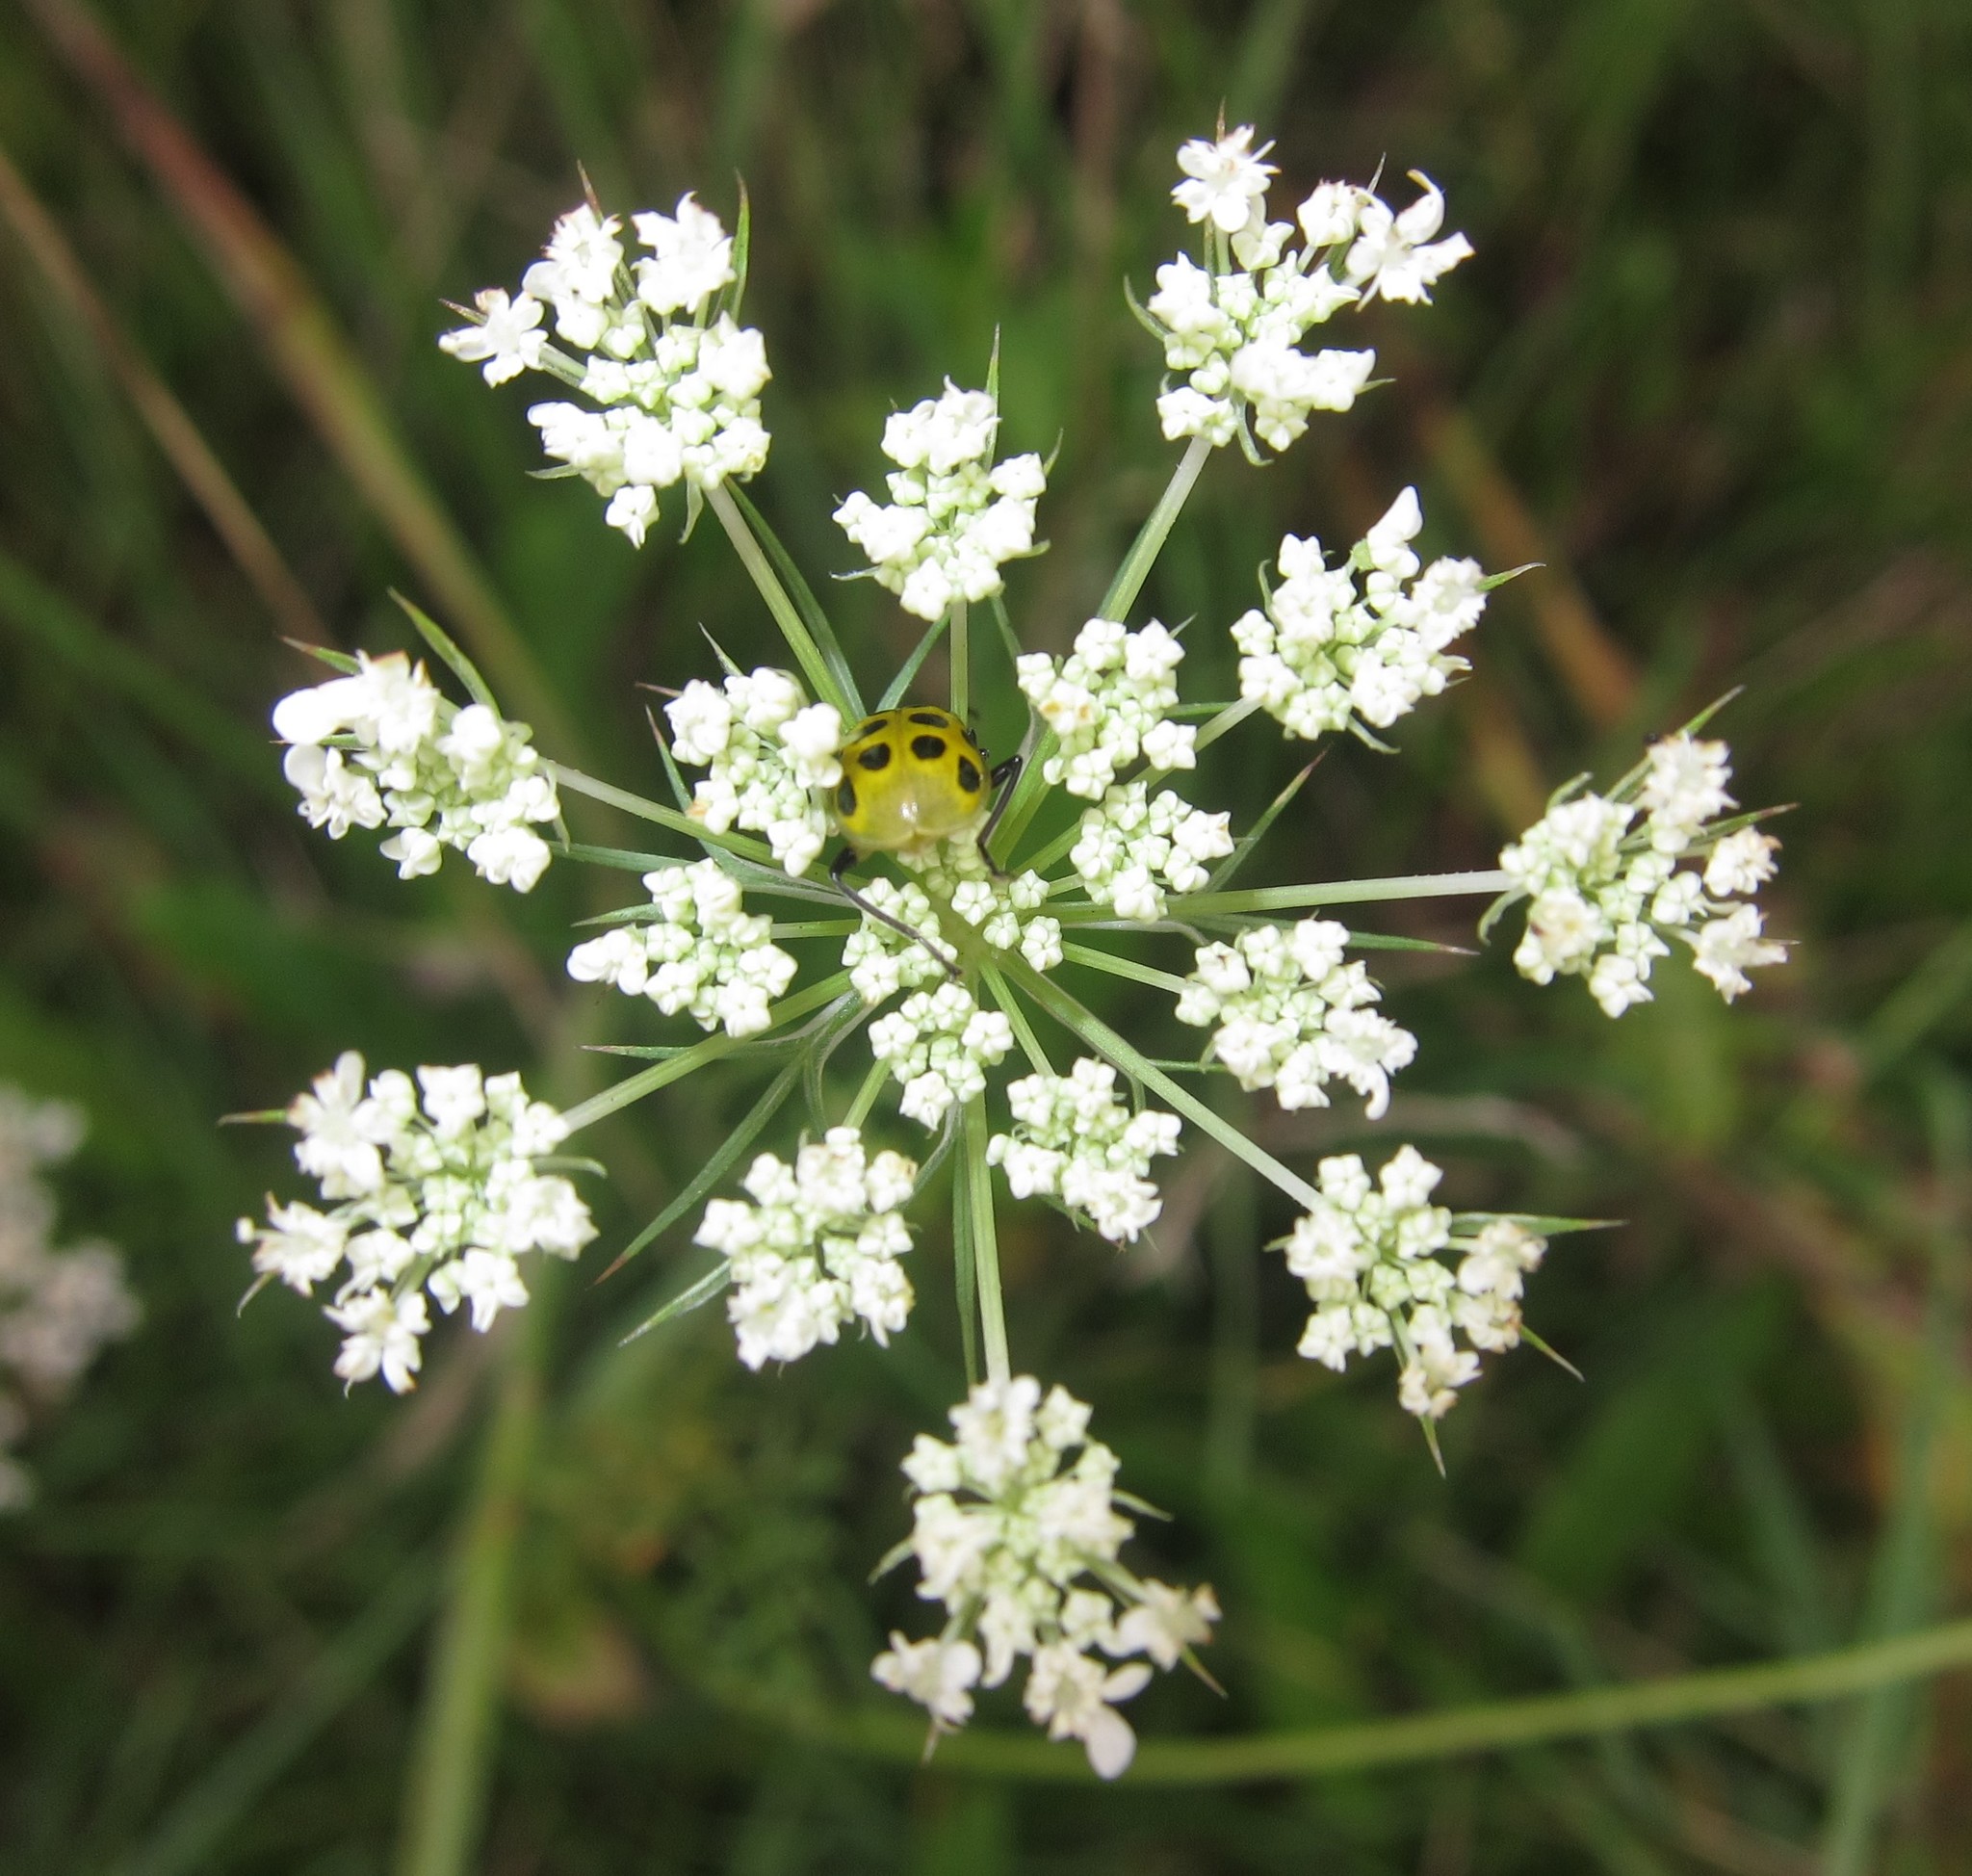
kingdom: Plantae
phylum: Tracheophyta
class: Magnoliopsida
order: Apiales
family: Apiaceae
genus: Daucus
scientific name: Daucus carota
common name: Wild carrot
